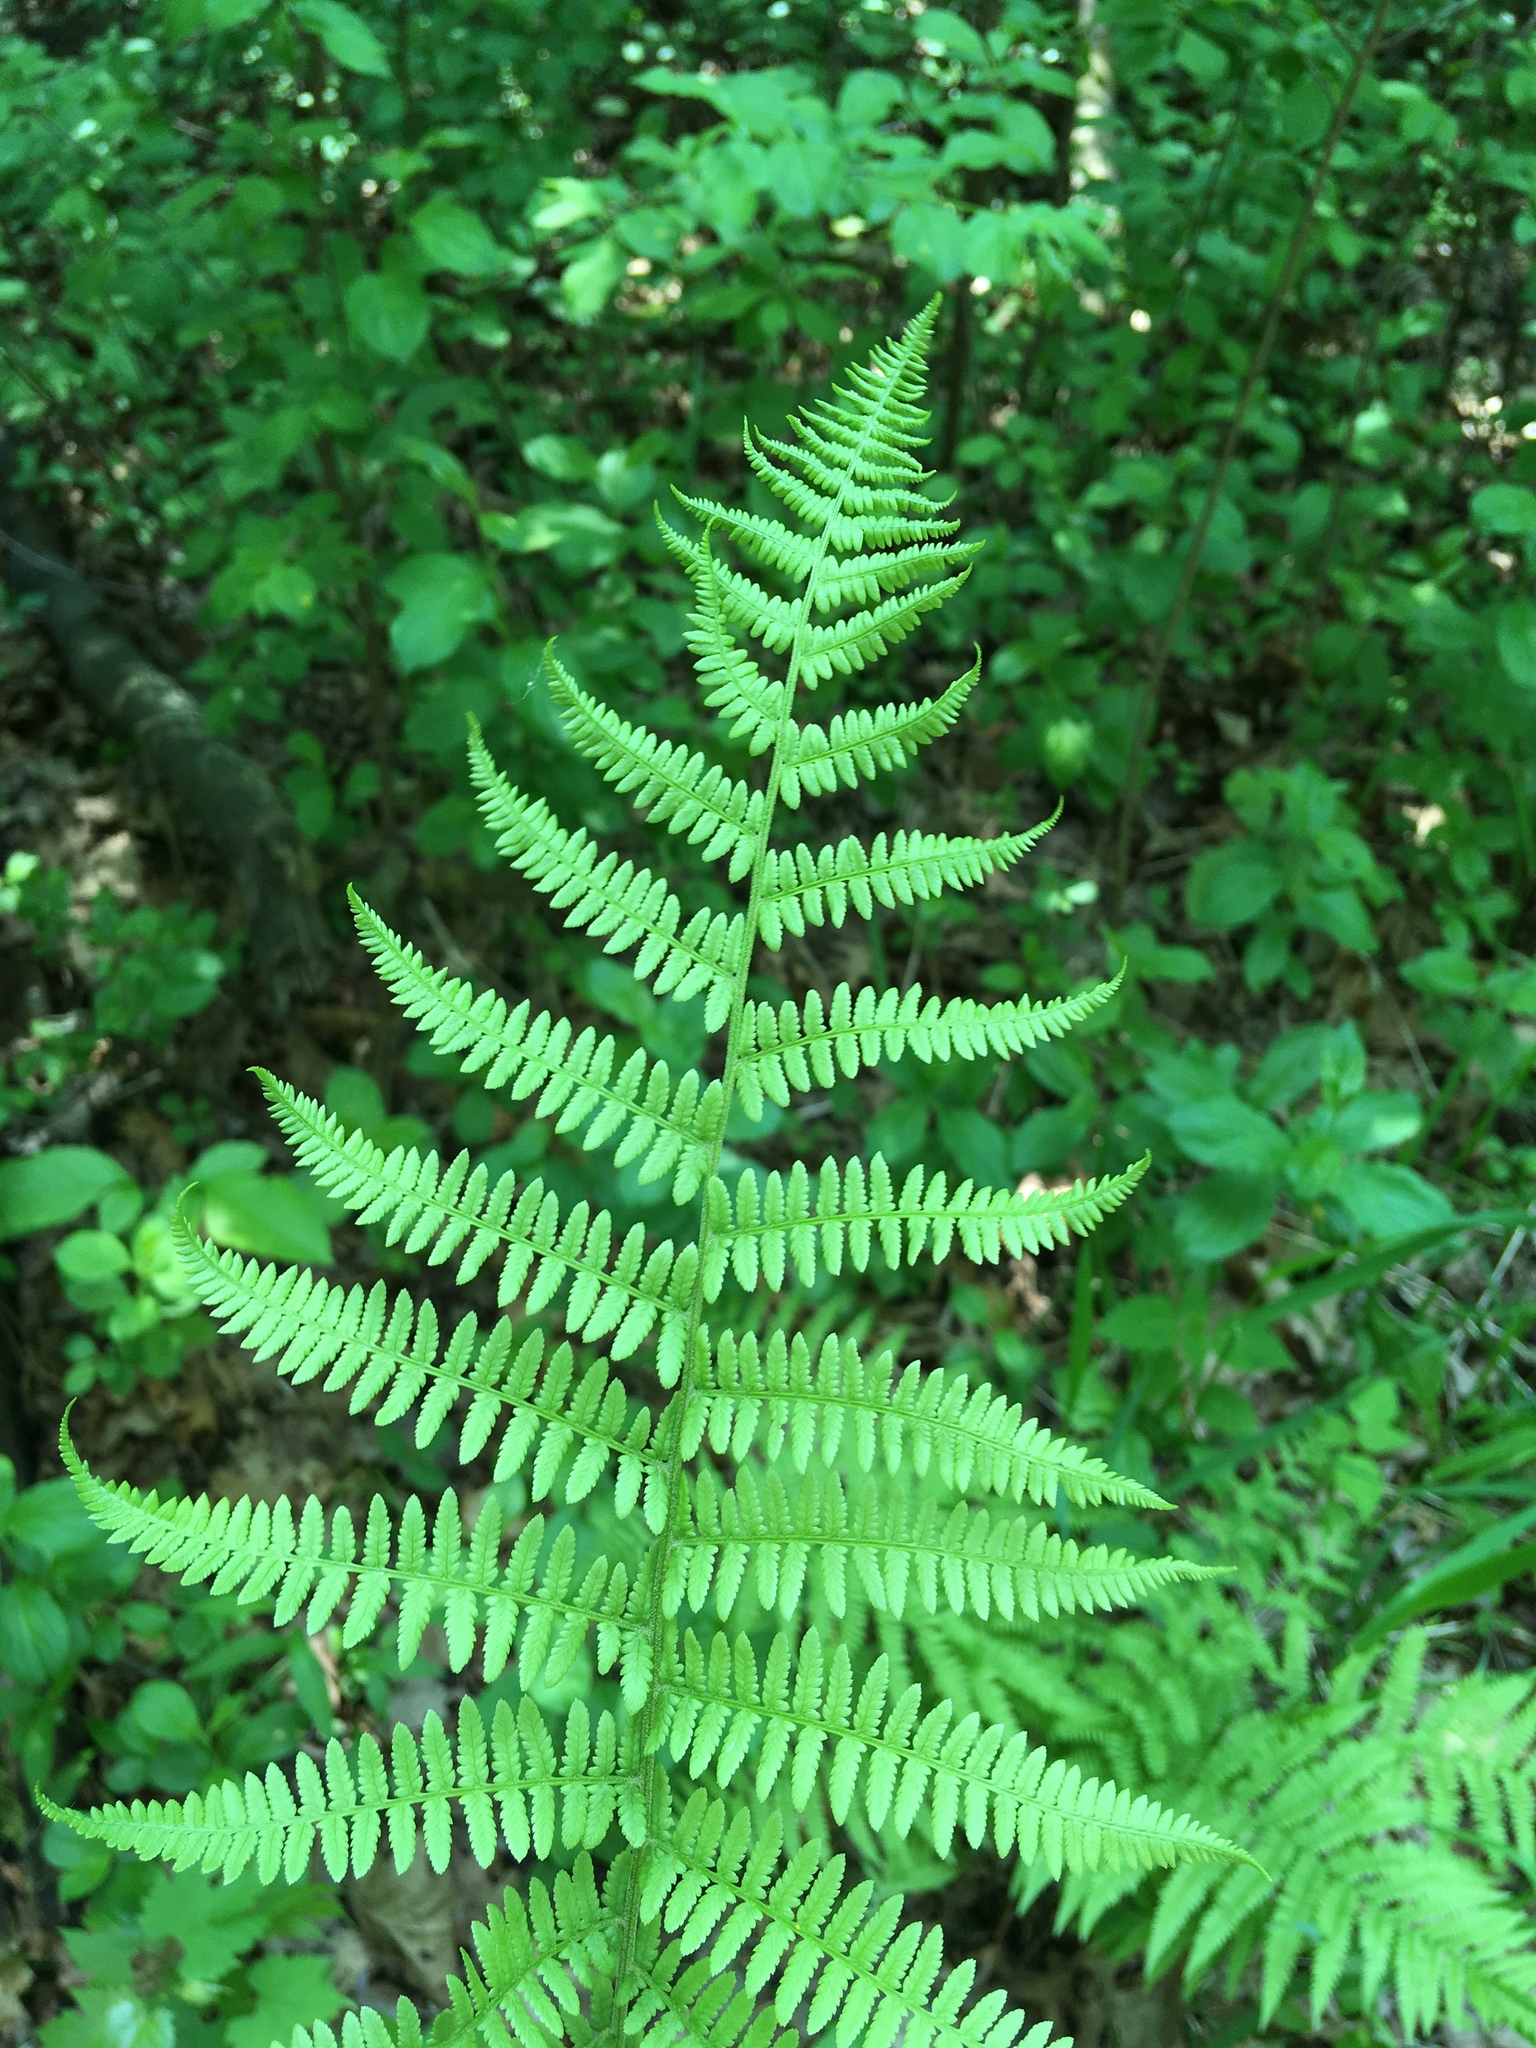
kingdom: Plantae
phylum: Tracheophyta
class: Polypodiopsida
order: Polypodiales
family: Athyriaceae
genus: Athyrium
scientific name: Athyrium angustum
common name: Northern lady fern
